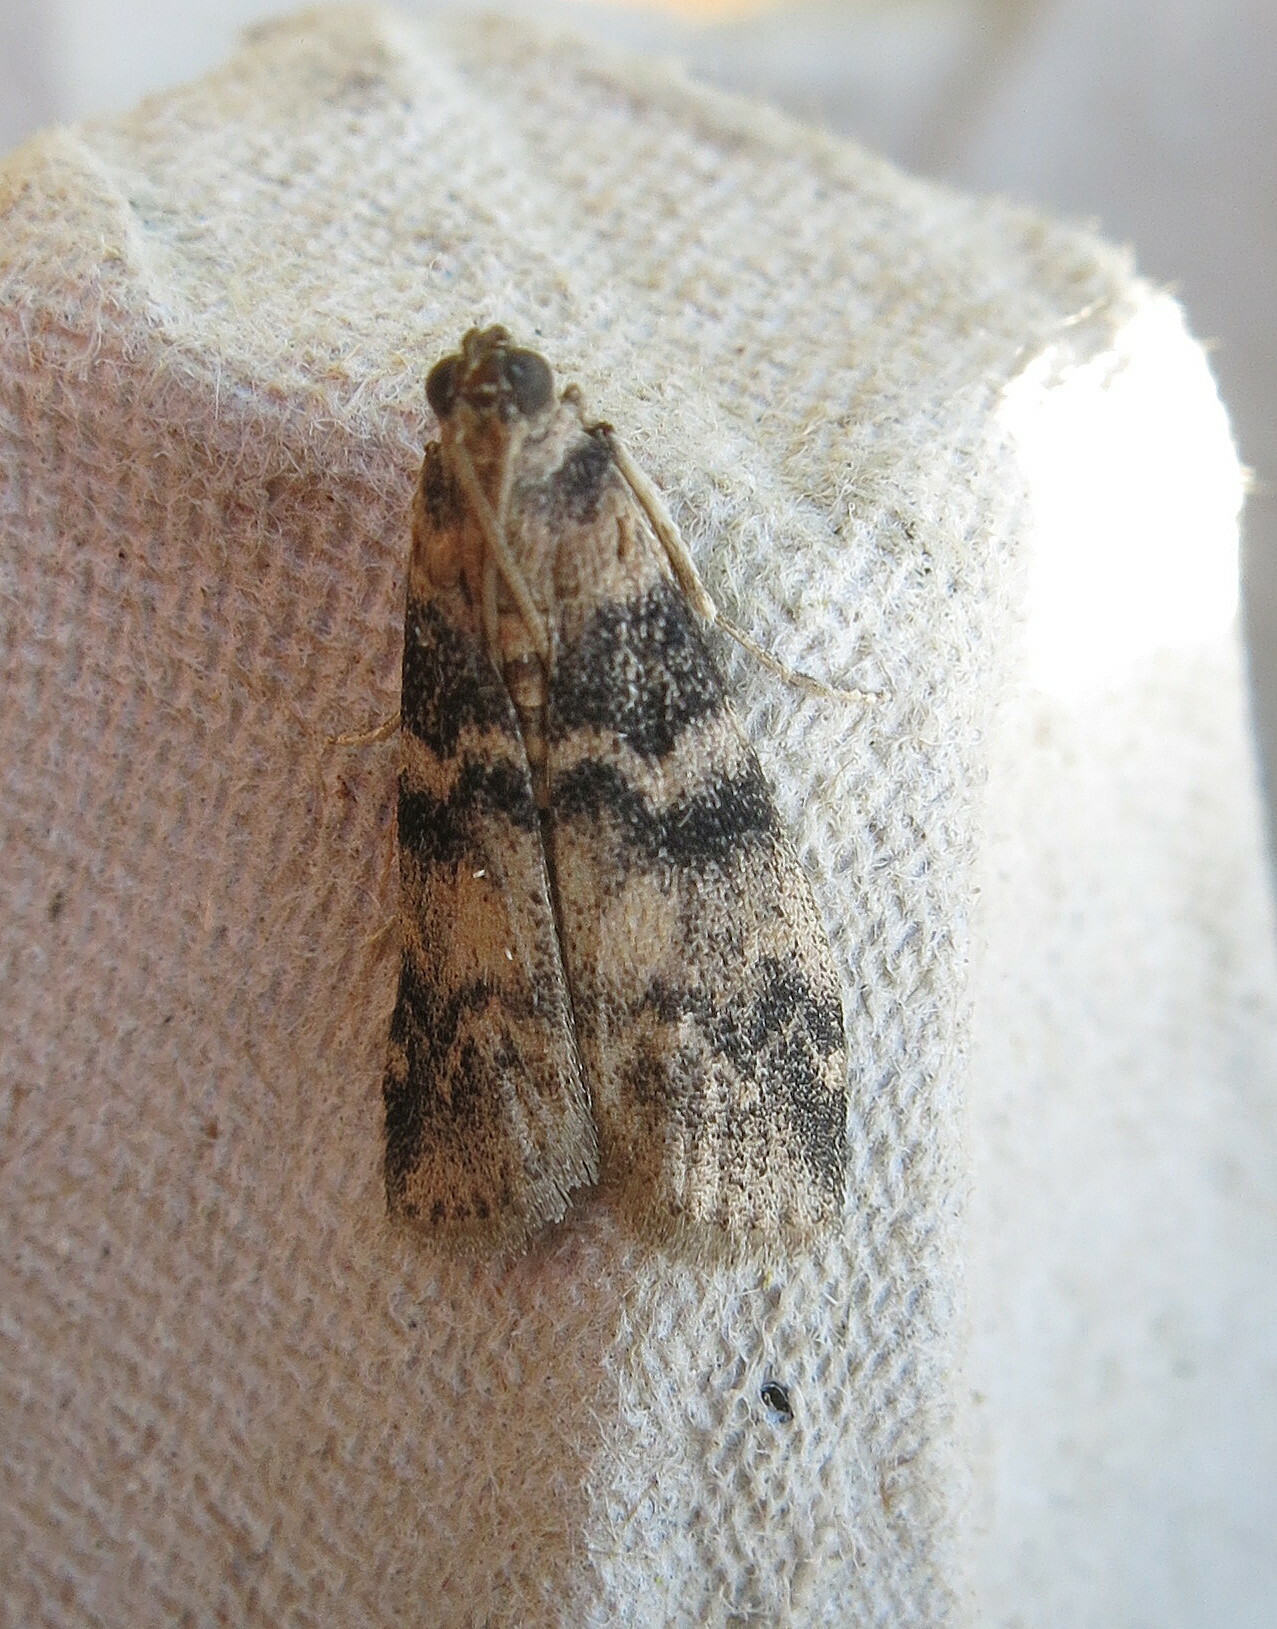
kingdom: Animalia
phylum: Arthropoda
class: Insecta
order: Lepidoptera
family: Pyralidae
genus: Euzophera
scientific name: Euzophera pinguis
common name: Ash-bark knot-horn
